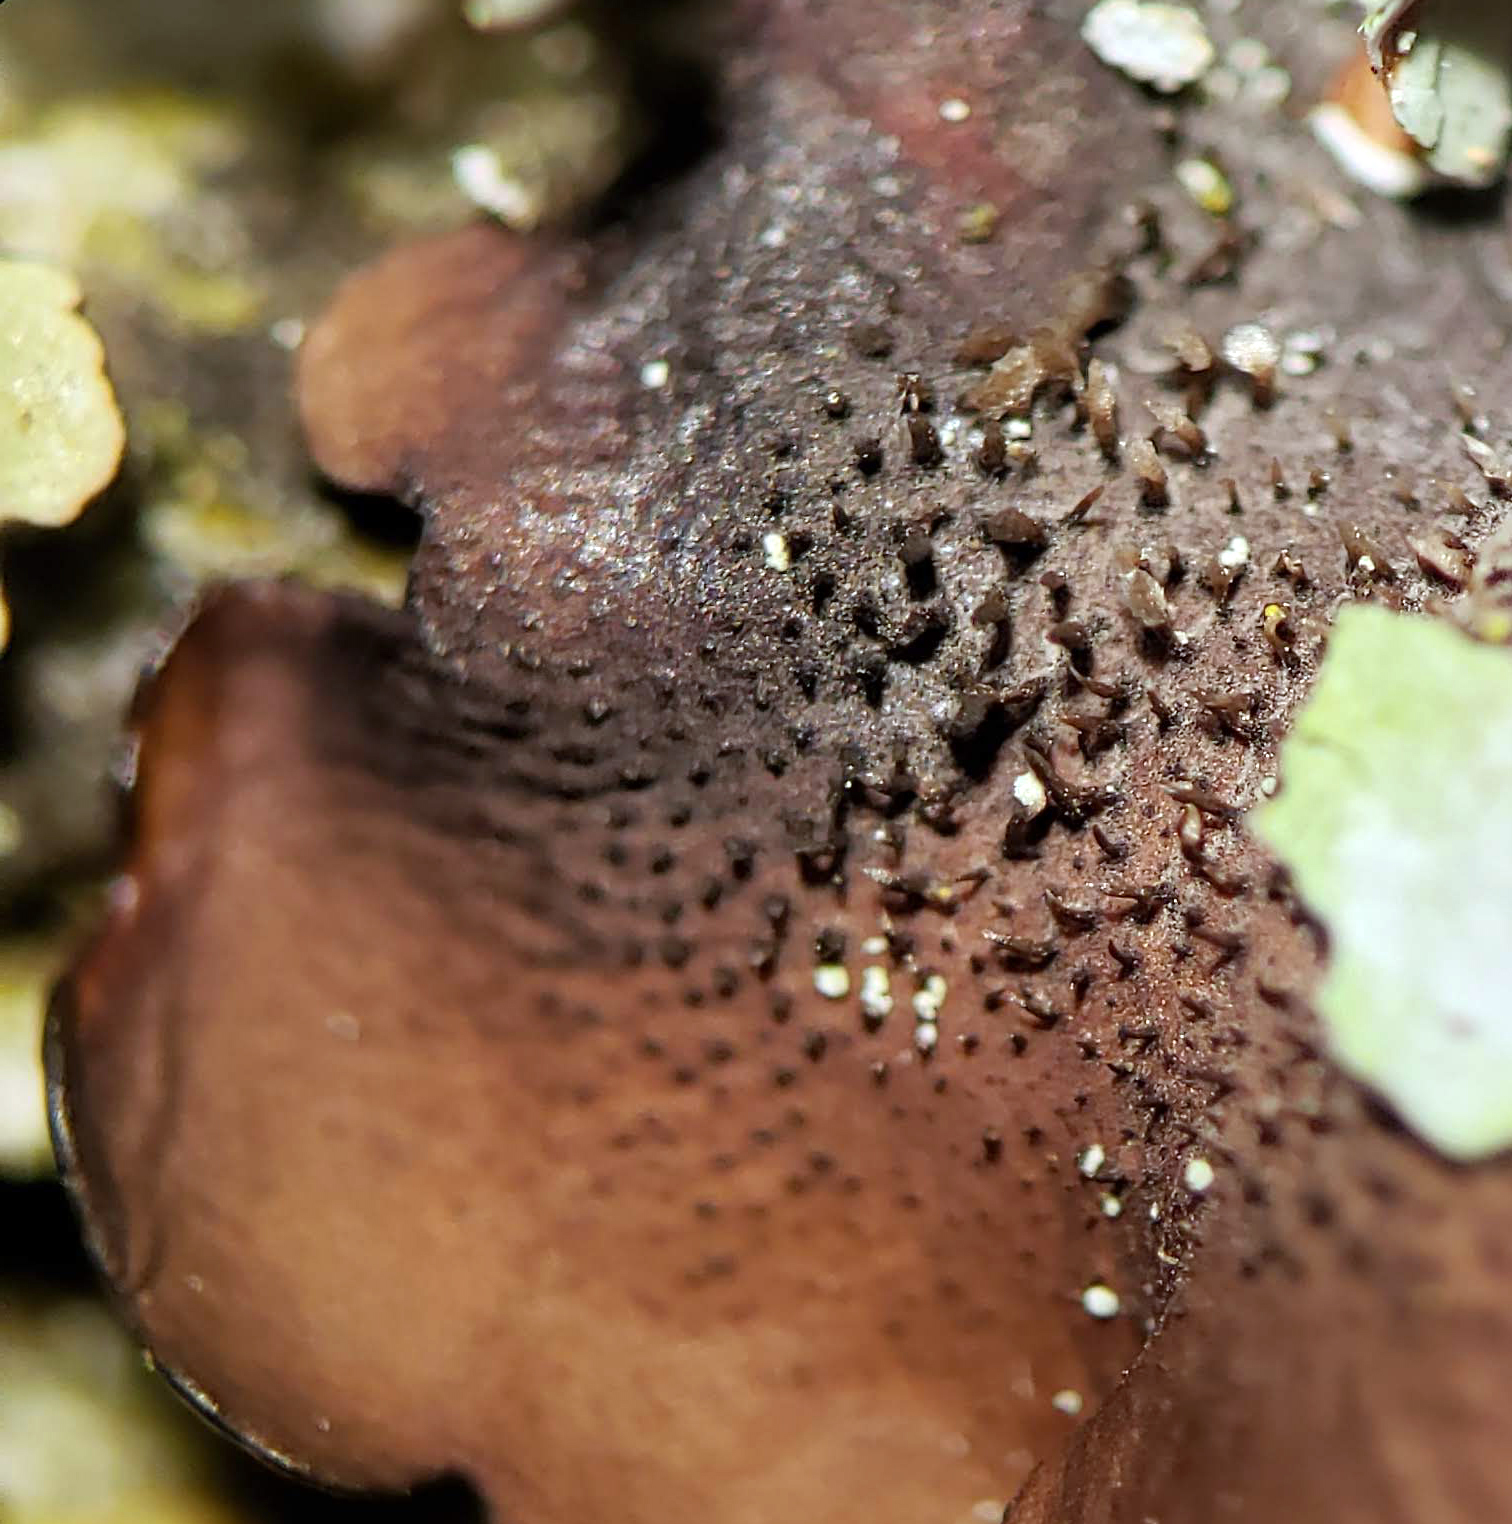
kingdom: Fungi
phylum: Ascomycota
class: Lecanoromycetes
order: Lecanorales
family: Parmeliaceae
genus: Canoparmelia
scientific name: Canoparmelia texana
